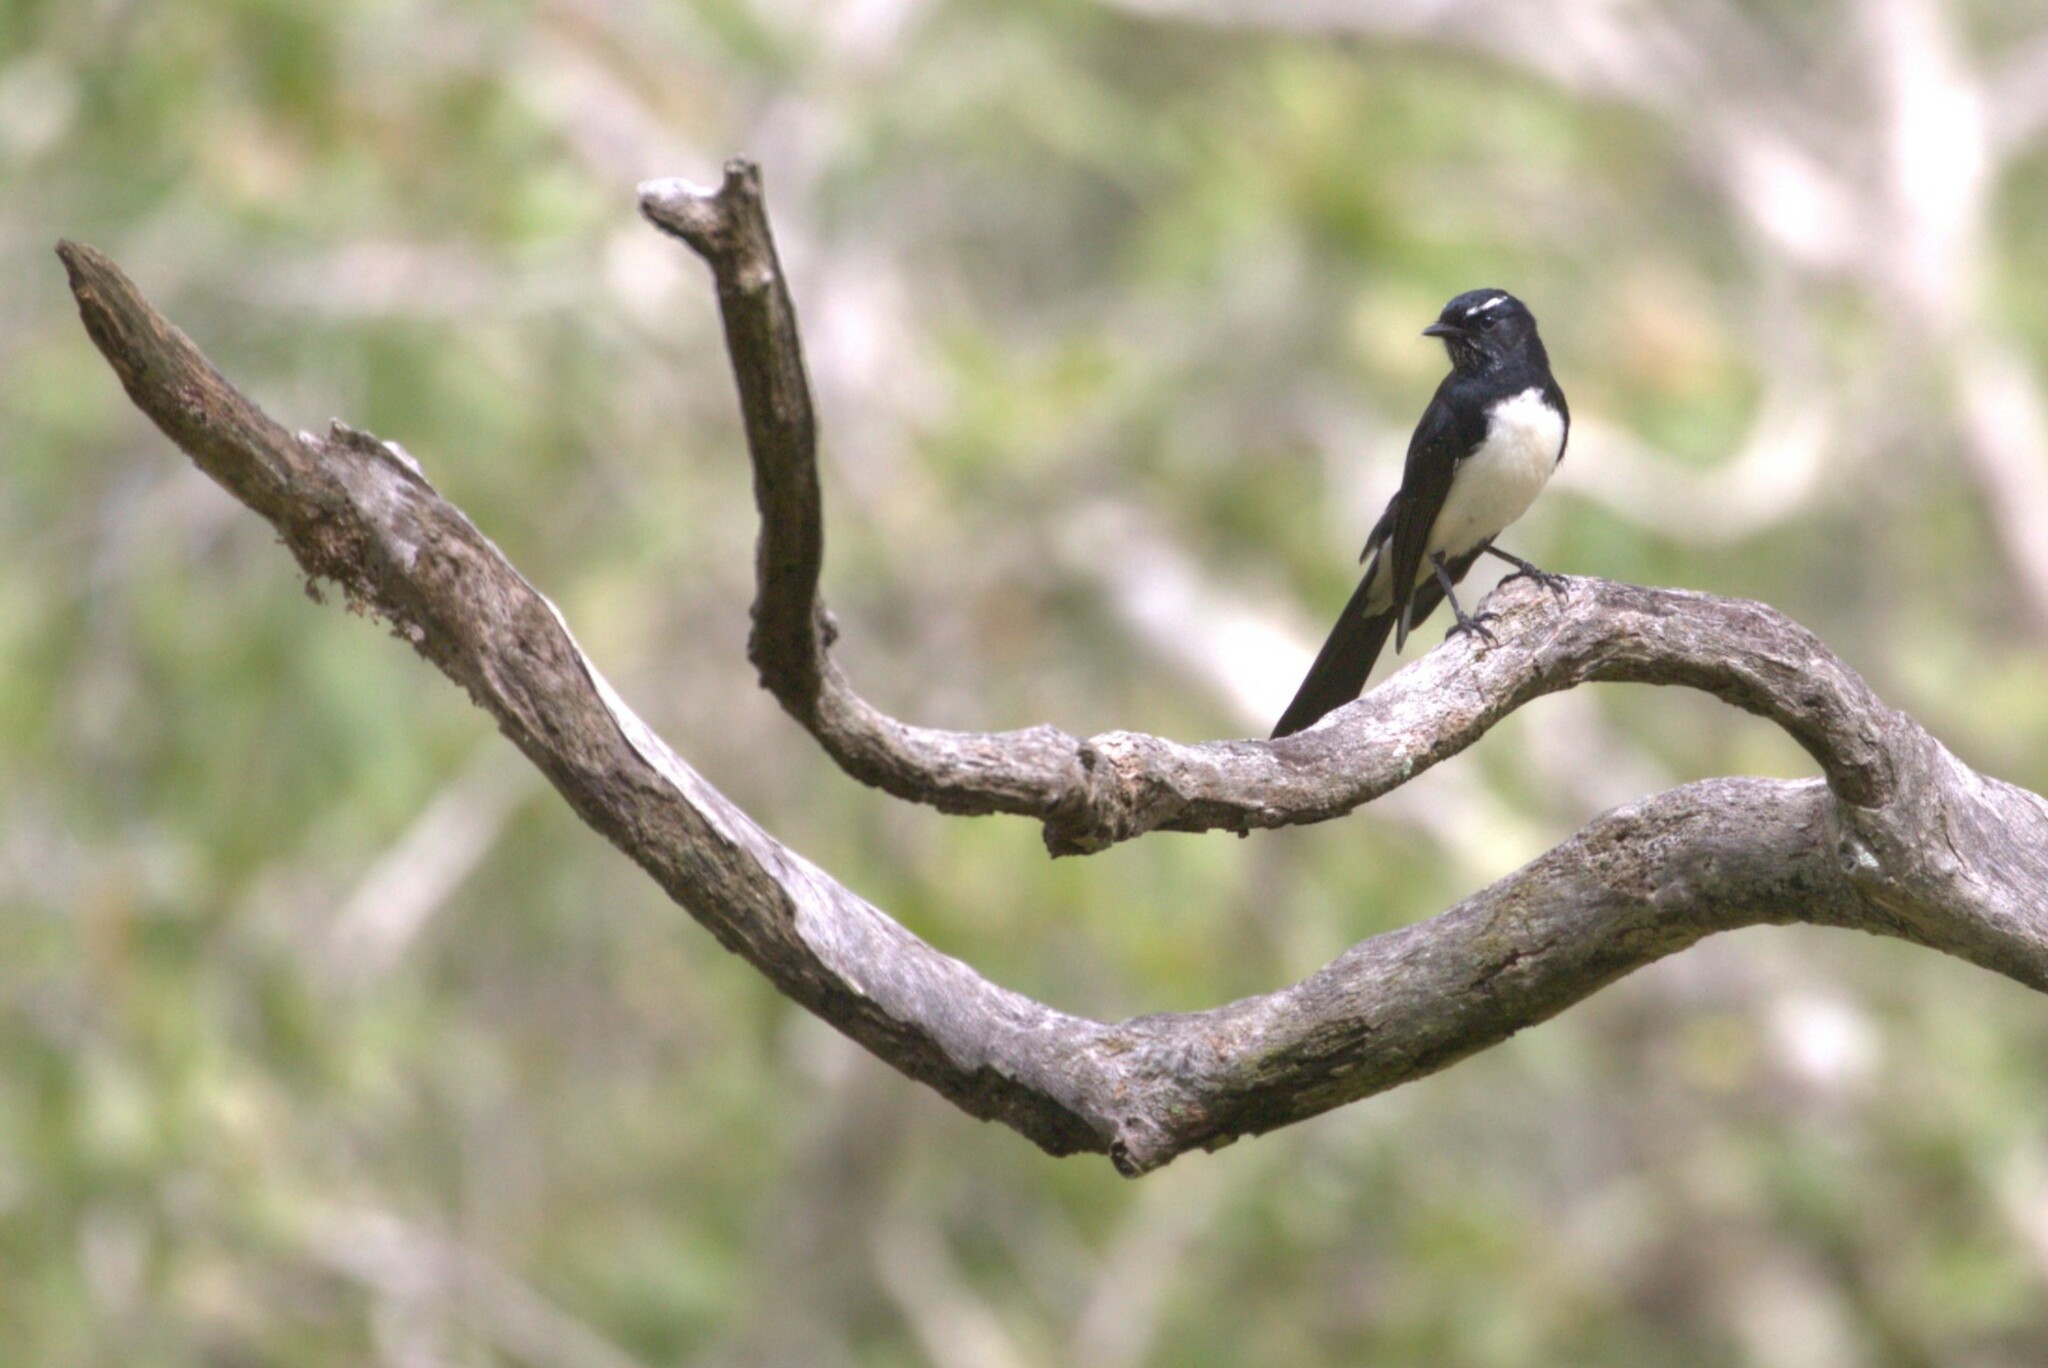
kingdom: Animalia
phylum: Chordata
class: Aves
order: Passeriformes
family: Rhipiduridae
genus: Rhipidura
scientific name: Rhipidura leucophrys
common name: Willie wagtail
